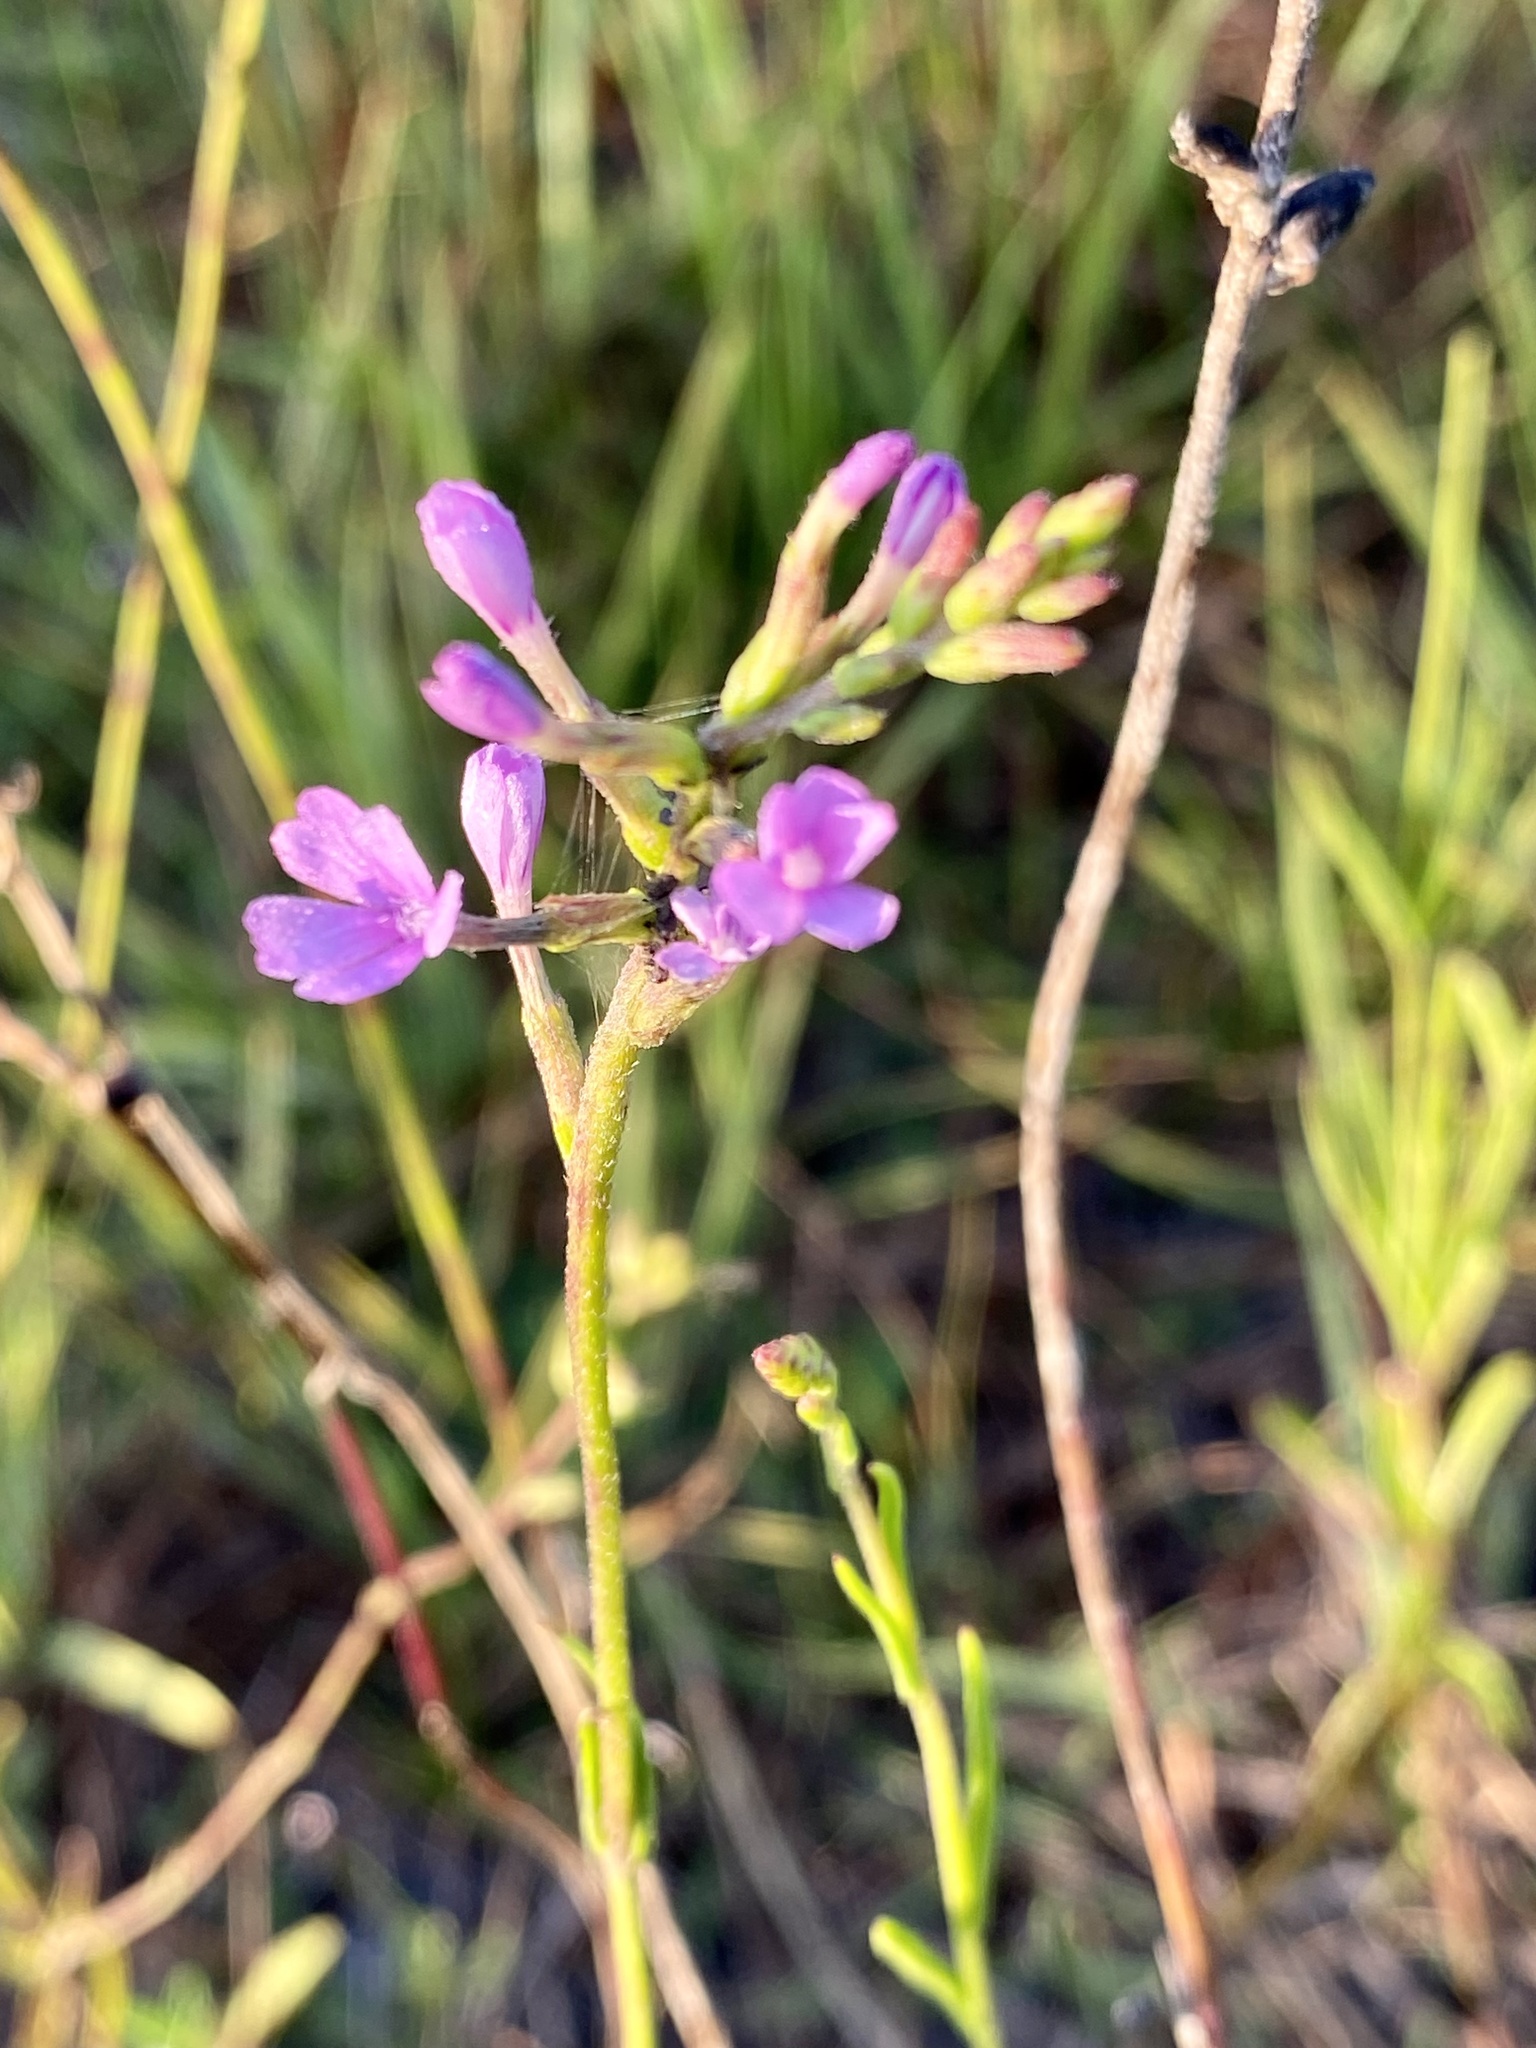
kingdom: Plantae
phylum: Tracheophyta
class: Magnoliopsida
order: Lamiales
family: Orobanchaceae
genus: Buchnera
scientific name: Buchnera floridana
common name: Florida bluehearts
